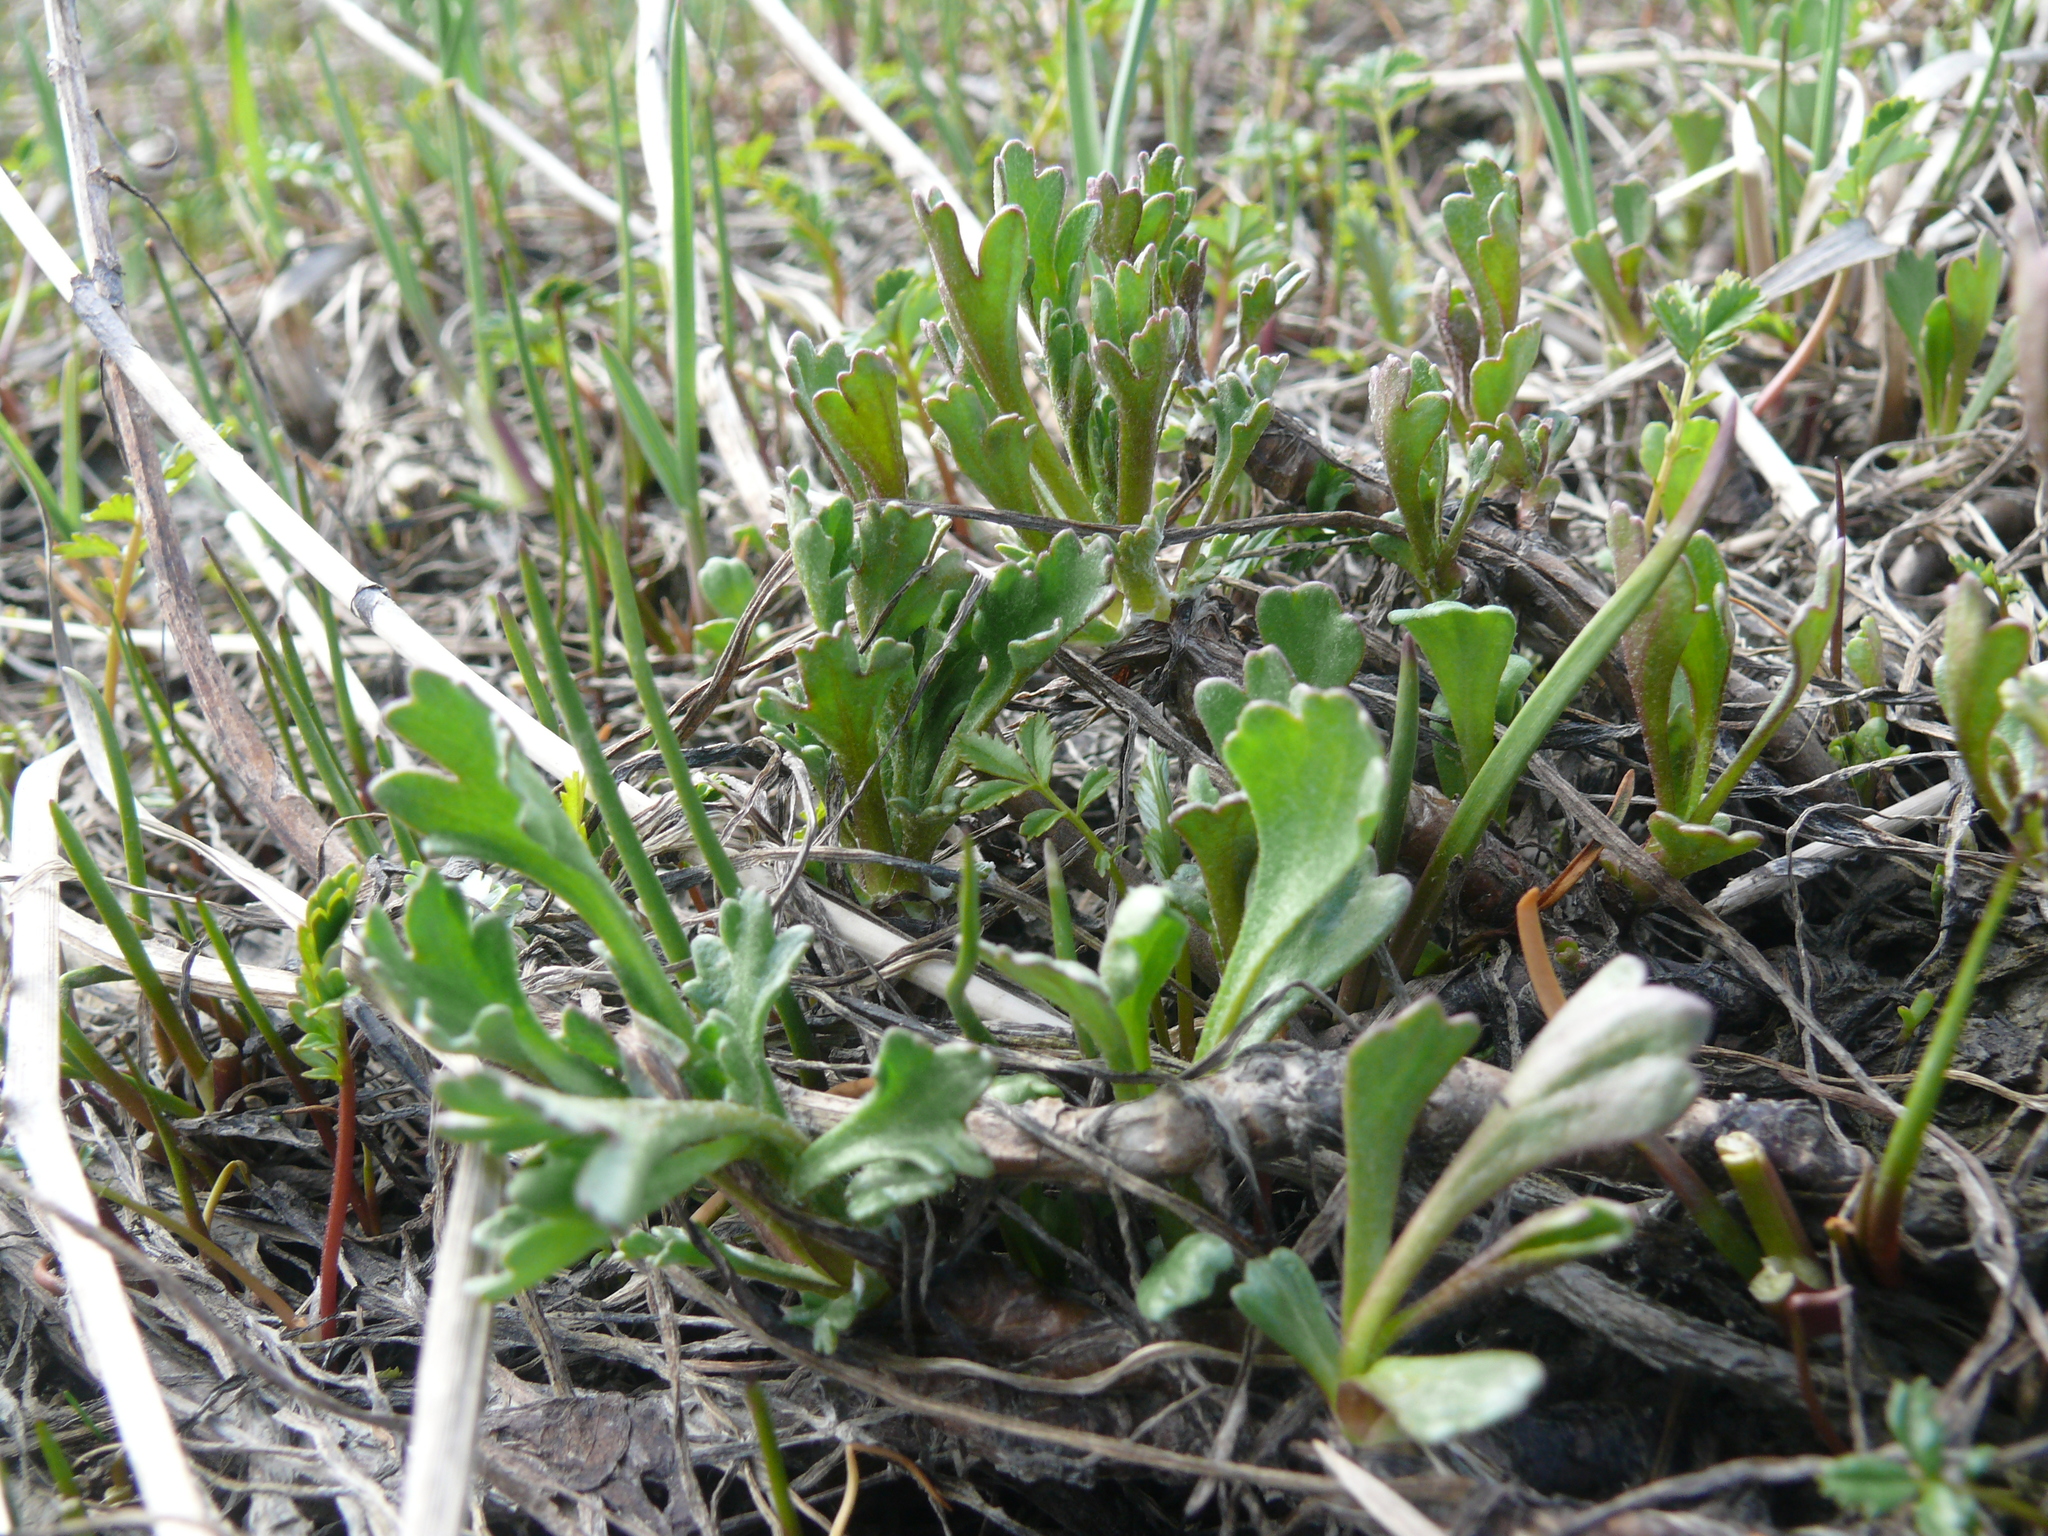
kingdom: Plantae
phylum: Tracheophyta
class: Magnoliopsida
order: Asterales
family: Asteraceae
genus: Arctanthemum
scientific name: Arctanthemum arcticum
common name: Arctic daisy
